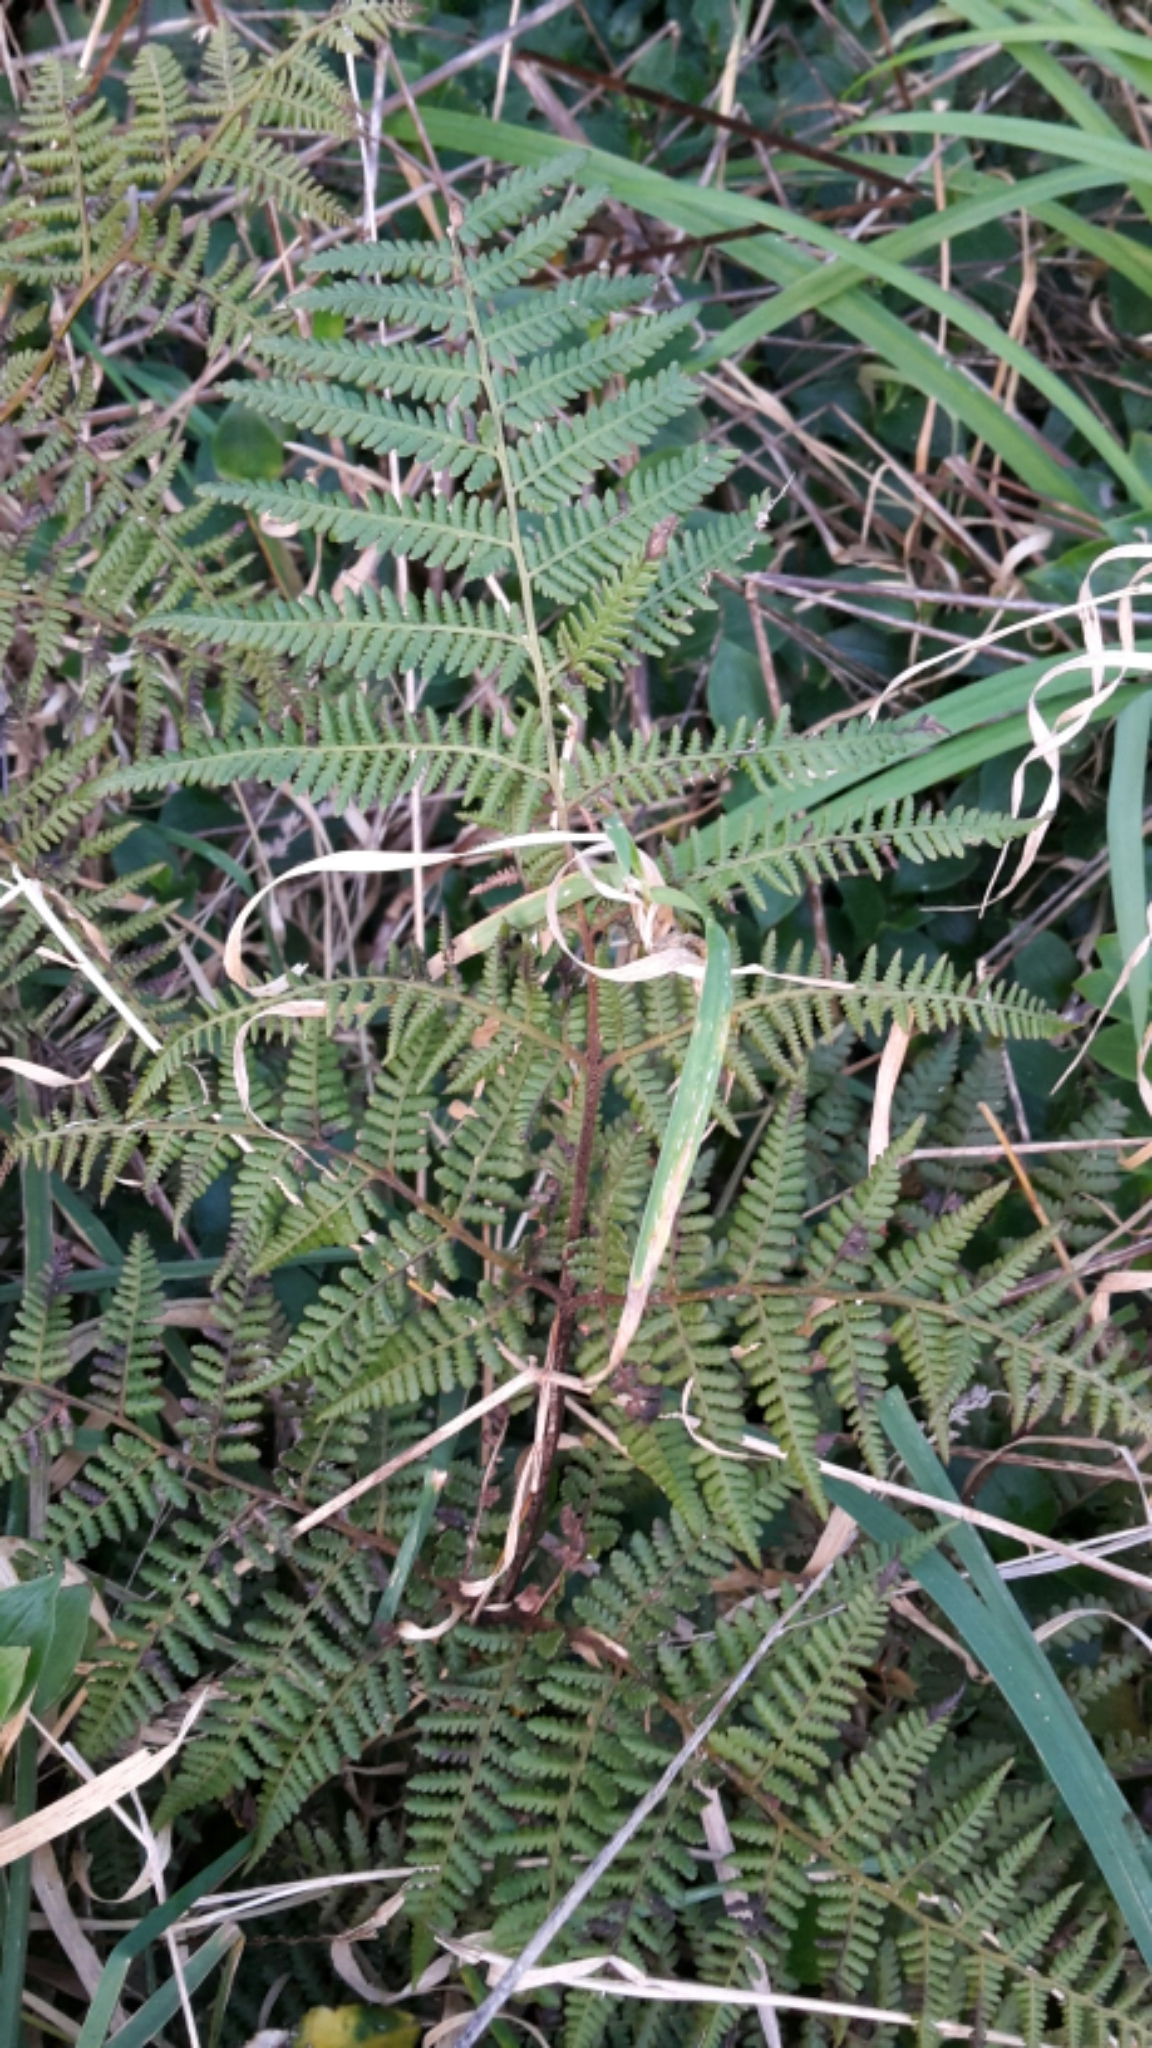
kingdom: Plantae
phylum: Tracheophyta
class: Polypodiopsida
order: Polypodiales
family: Dennstaedtiaceae
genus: Hypolepis
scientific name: Hypolepis ambigua
